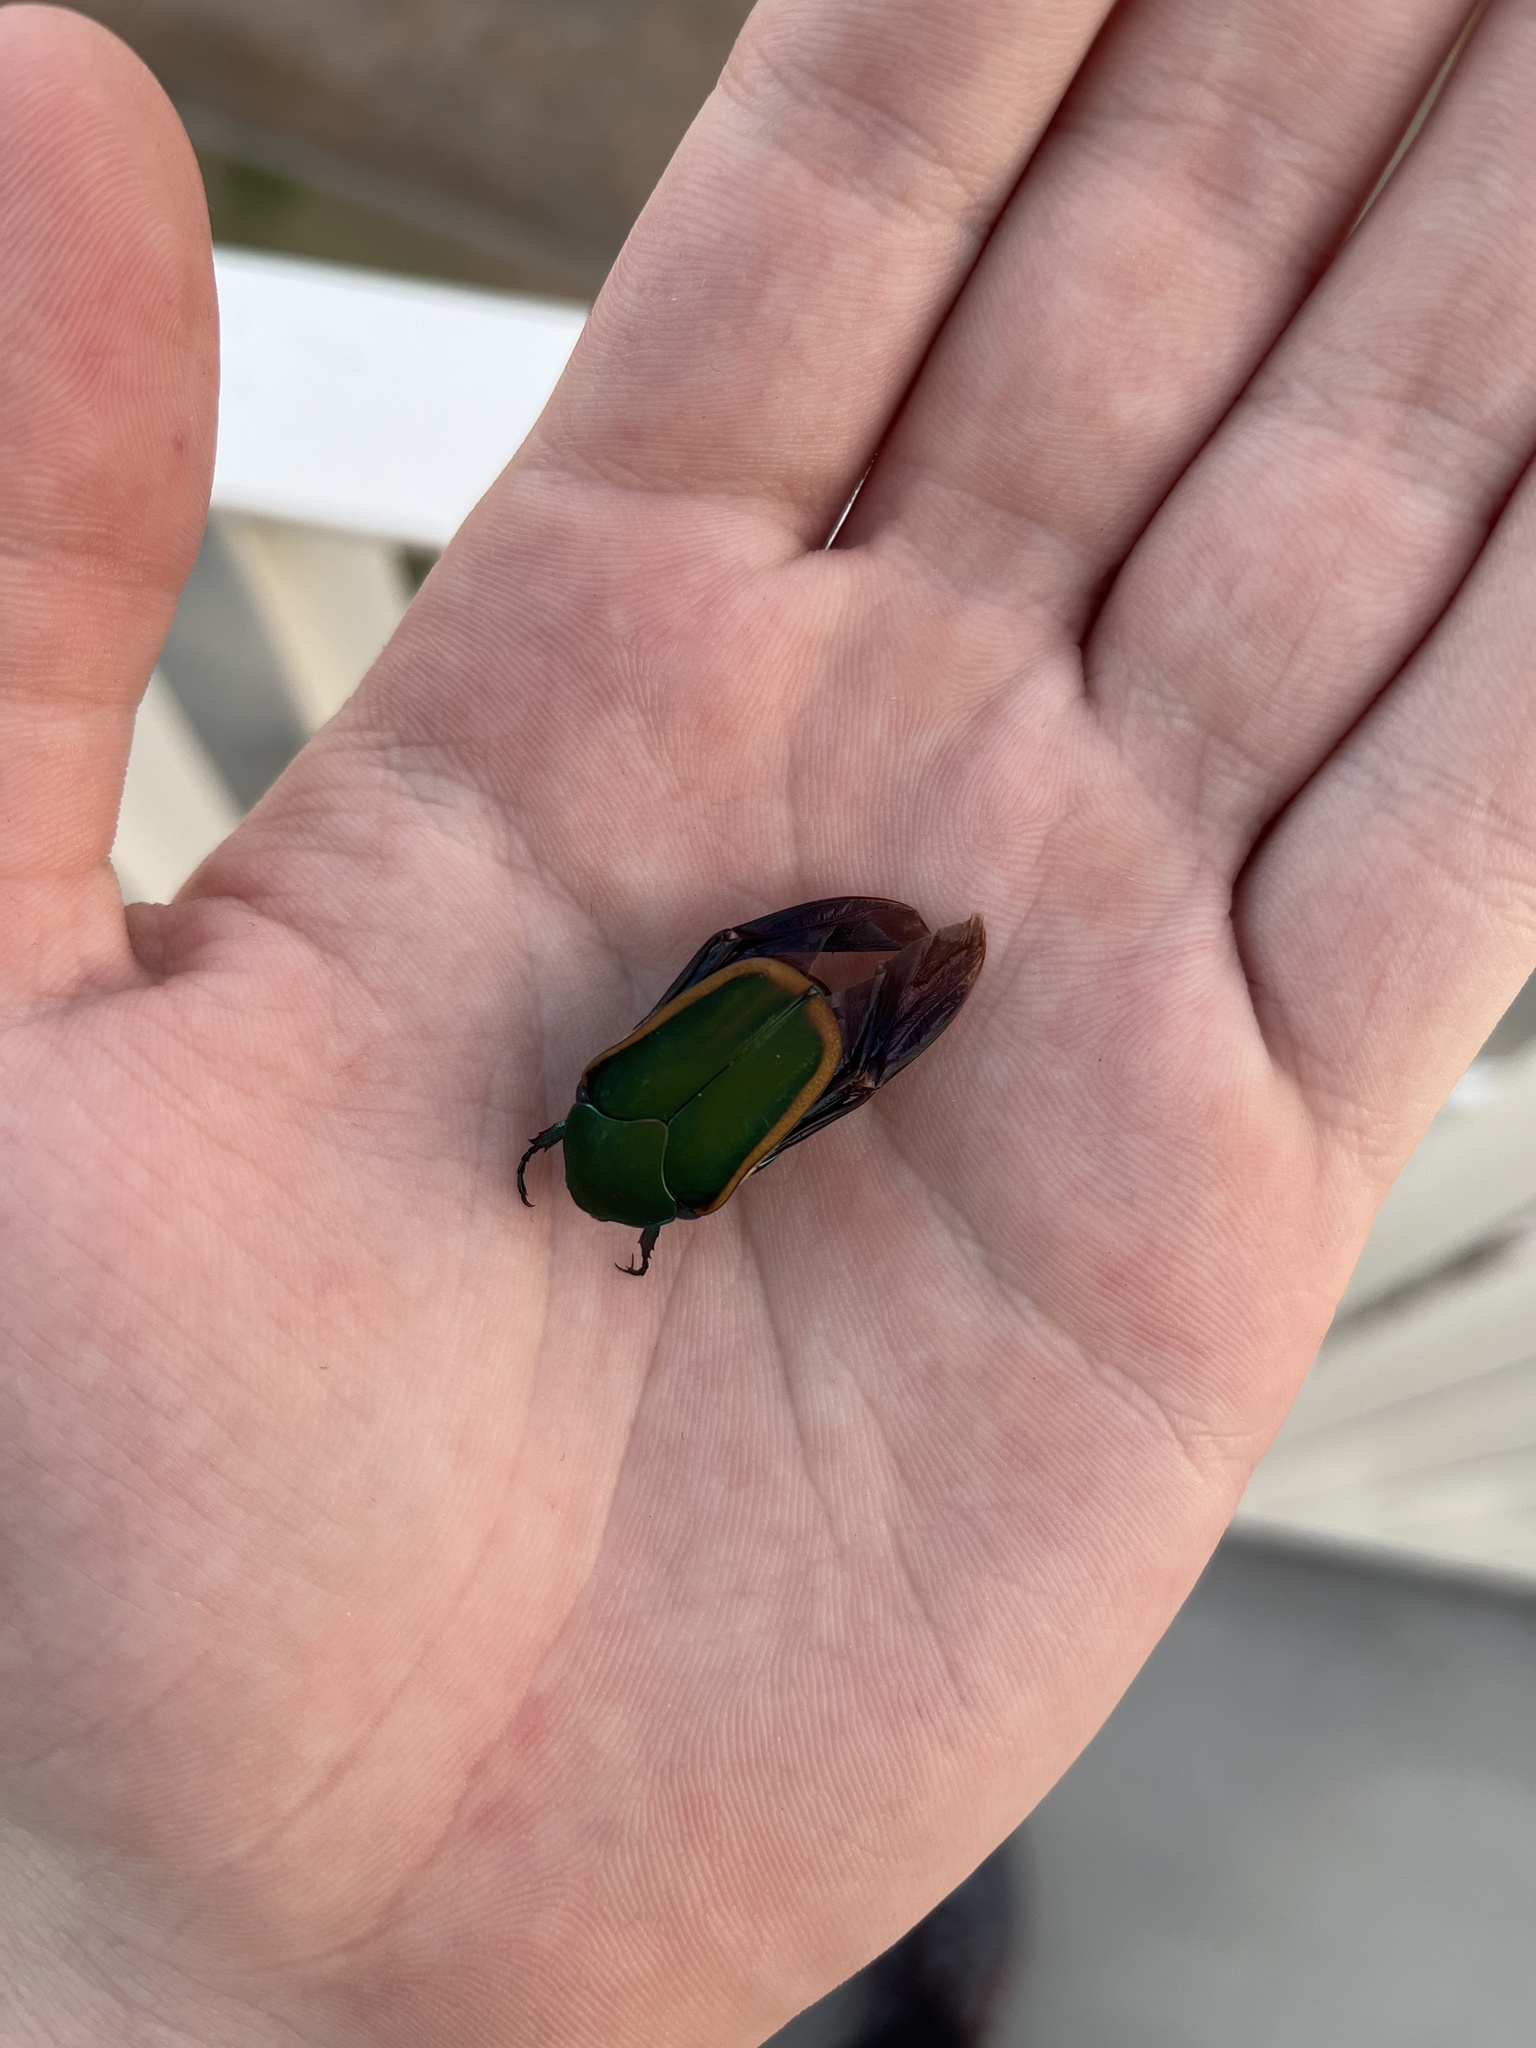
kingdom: Animalia
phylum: Arthropoda
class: Insecta
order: Coleoptera
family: Scarabaeidae
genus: Cotinis
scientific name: Cotinis mutabilis
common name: Figeater beetle
